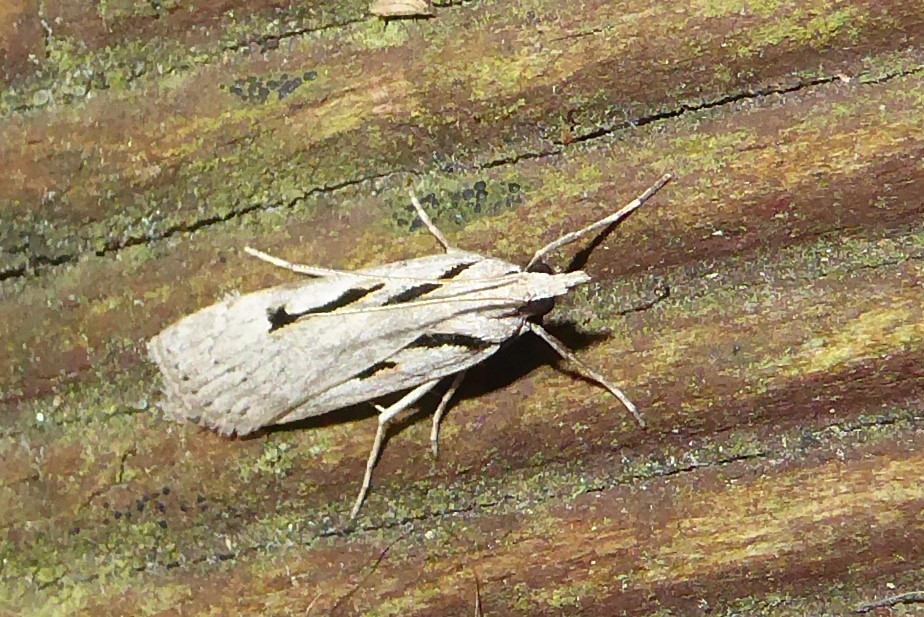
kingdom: Animalia
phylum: Arthropoda
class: Insecta
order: Lepidoptera
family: Crambidae
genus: Scoparia
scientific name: Scoparia rotuellus
